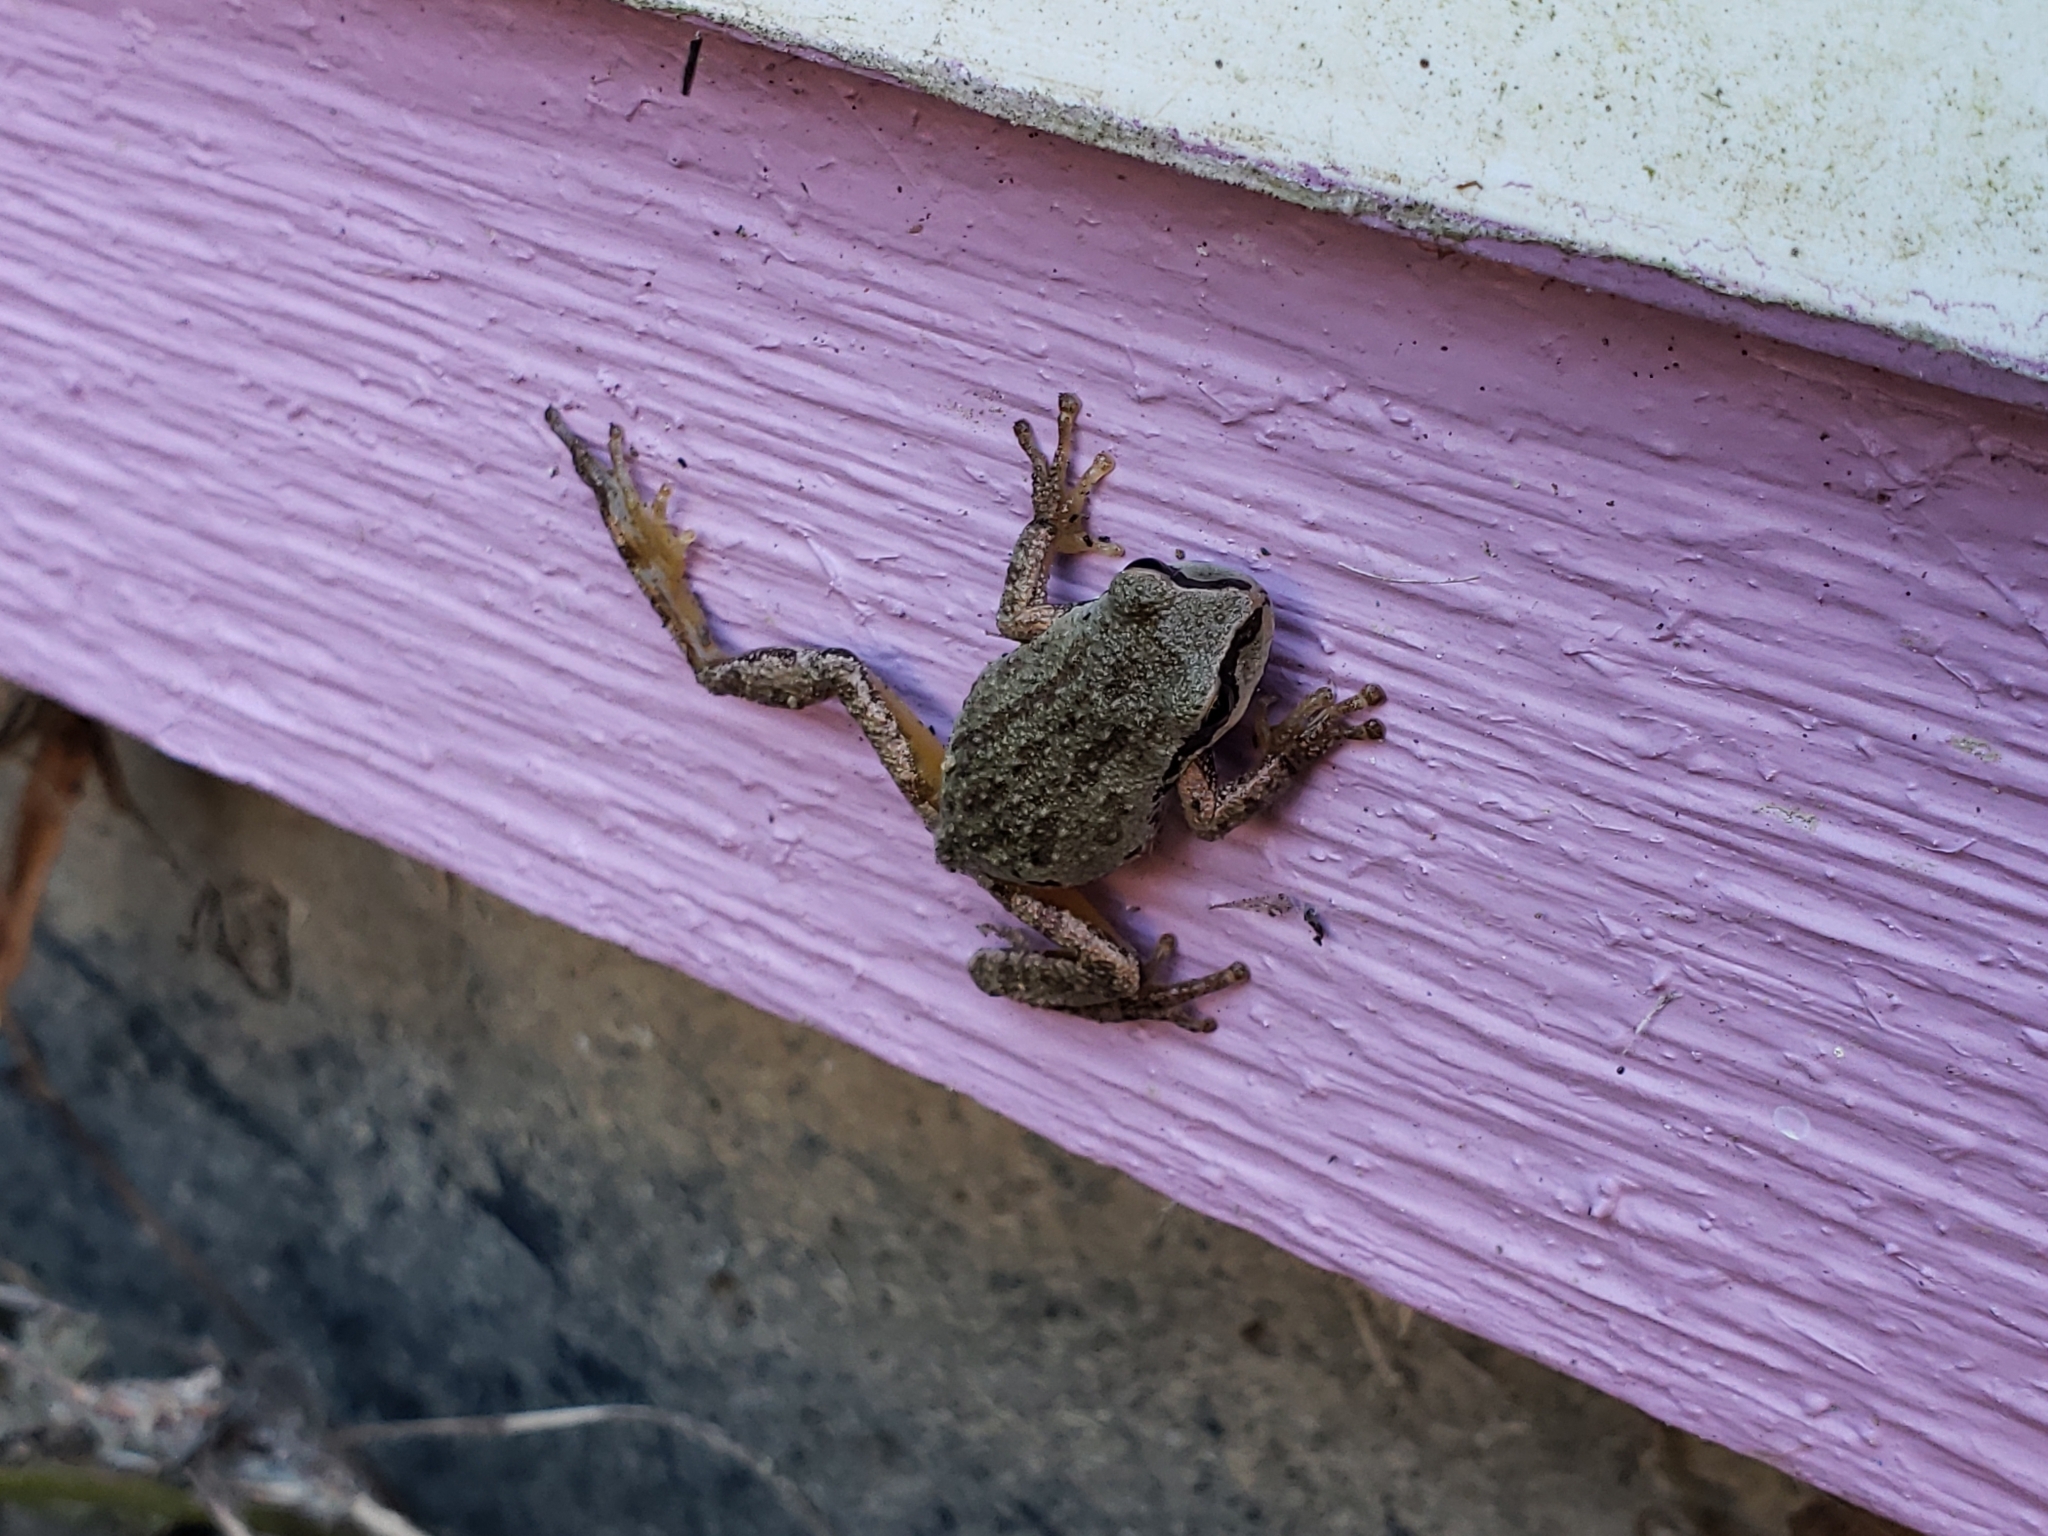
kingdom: Animalia
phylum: Chordata
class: Amphibia
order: Anura
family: Hylidae
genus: Pseudacris
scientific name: Pseudacris regilla
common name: Pacific chorus frog
